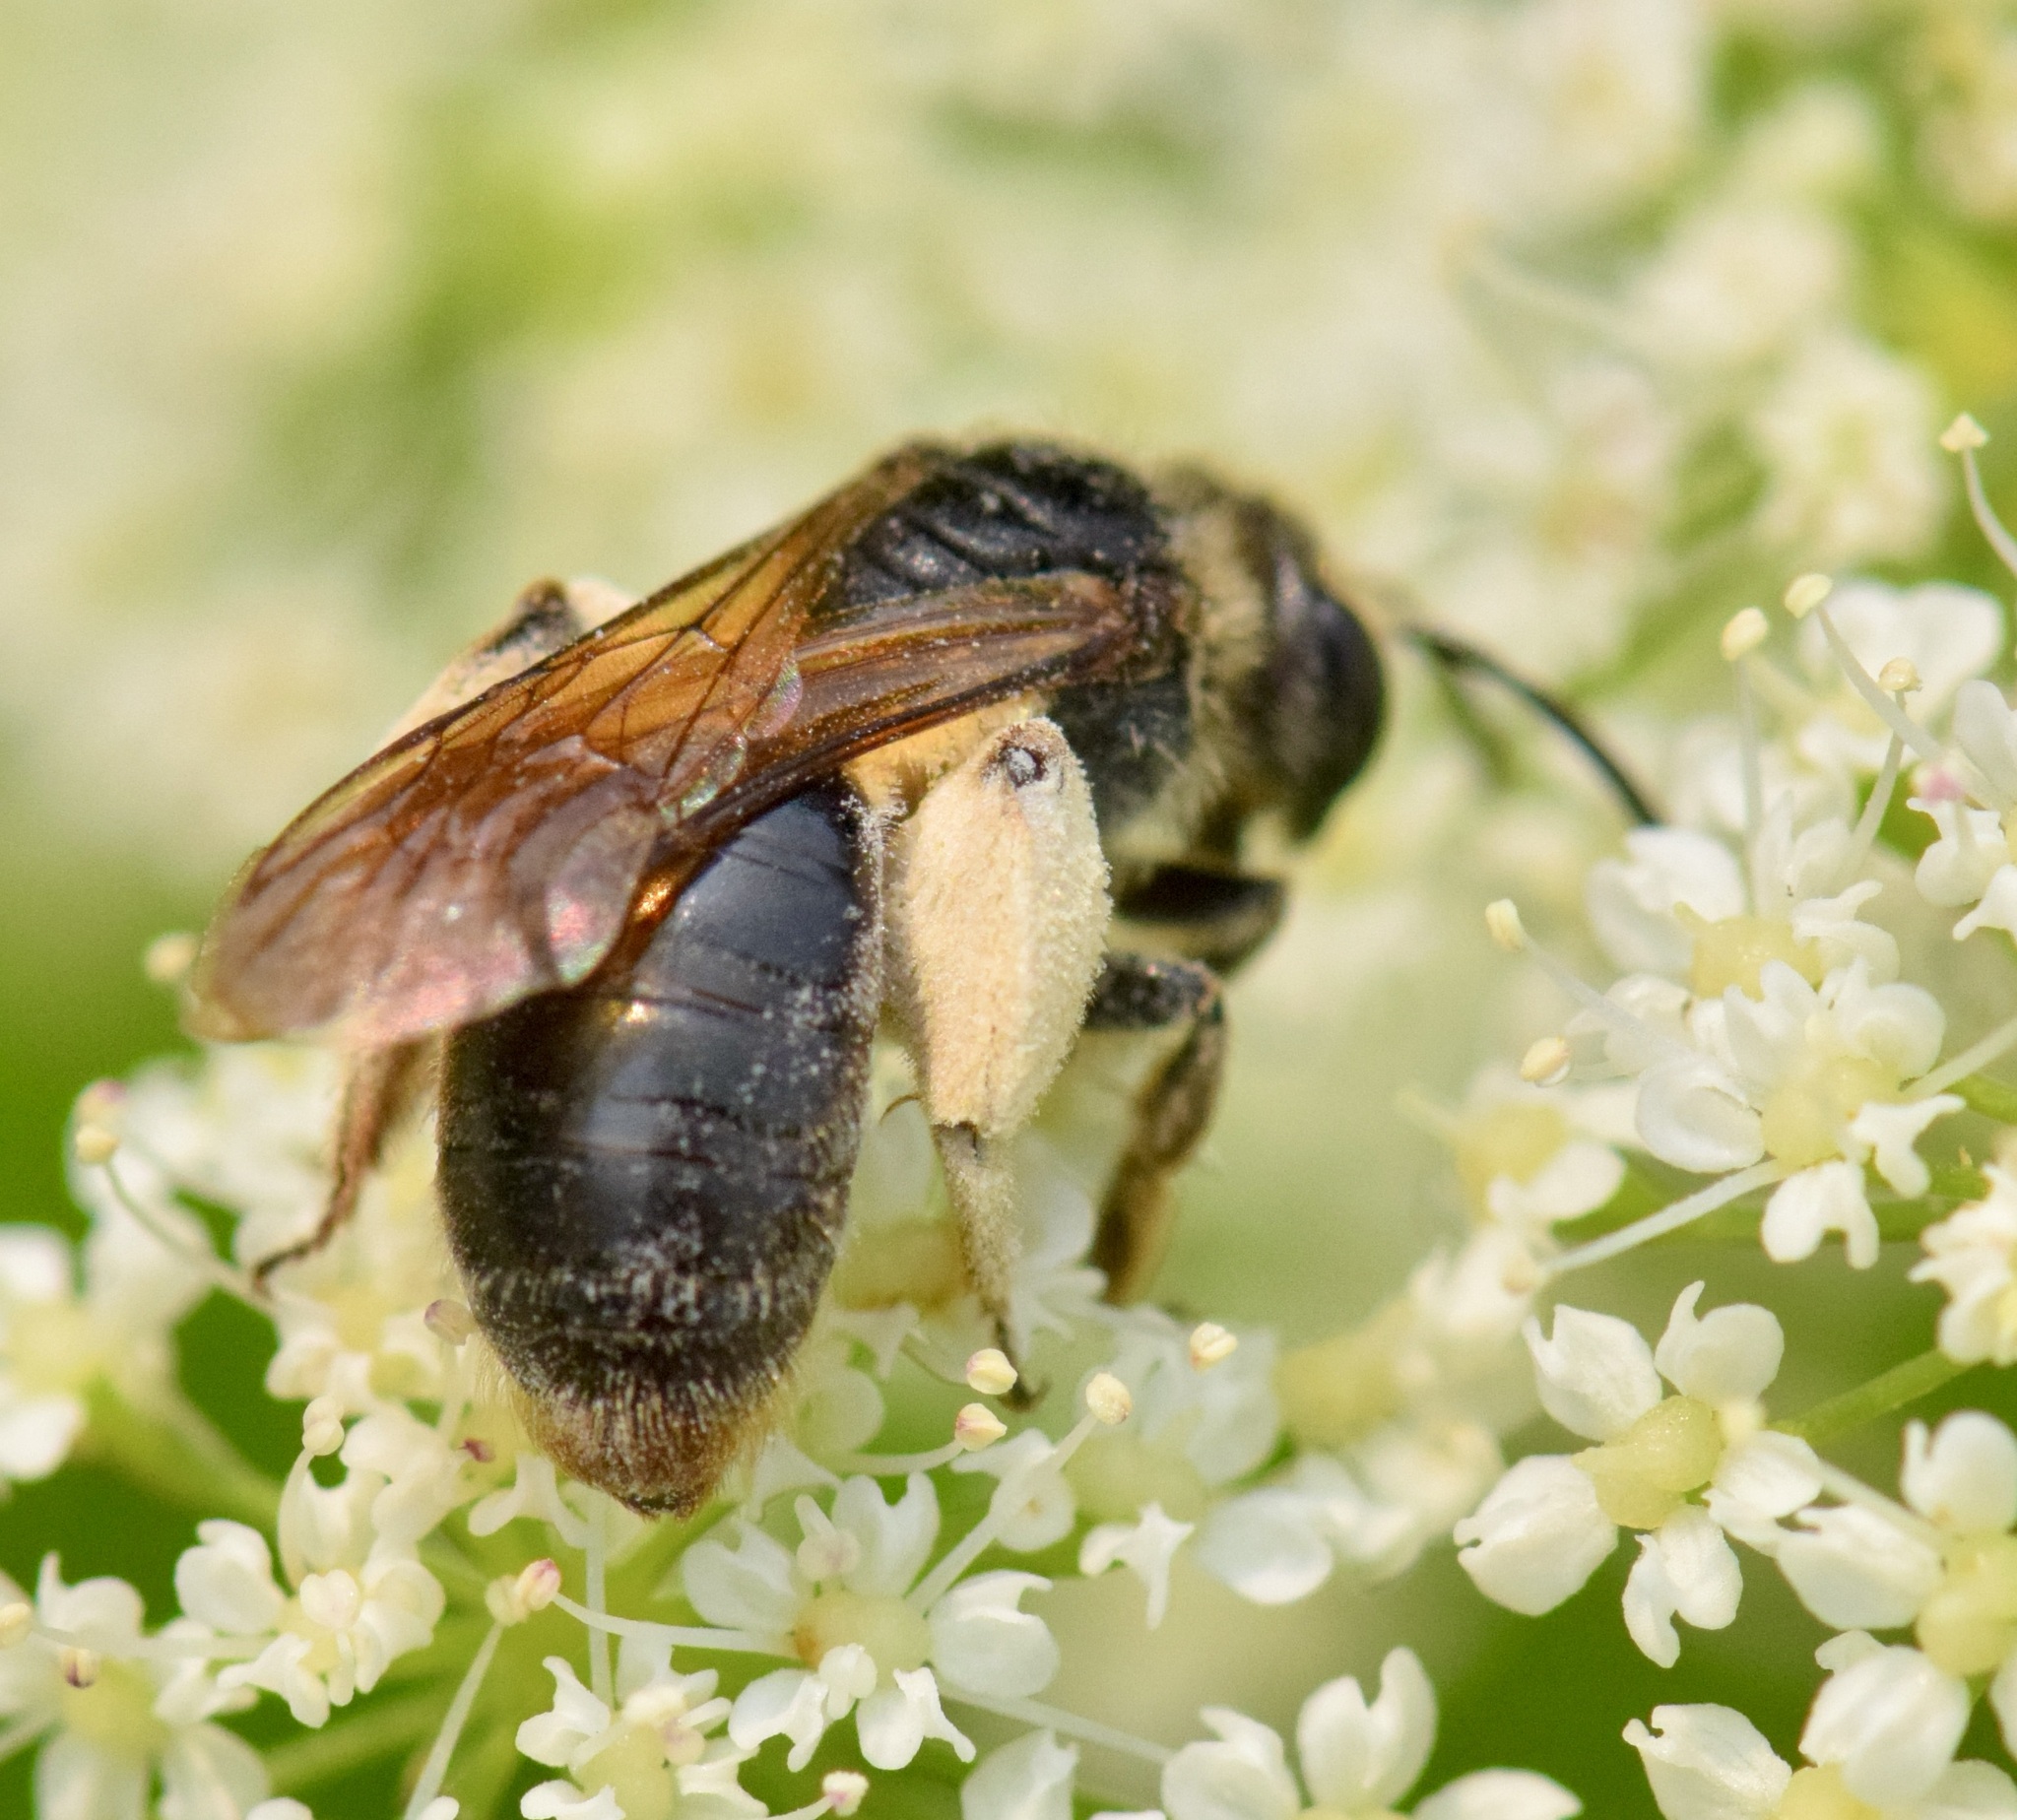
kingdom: Animalia
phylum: Arthropoda
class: Insecta
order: Hymenoptera
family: Andrenidae
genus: Andrena
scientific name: Andrena crataegi
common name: Hawthorn mining bee
